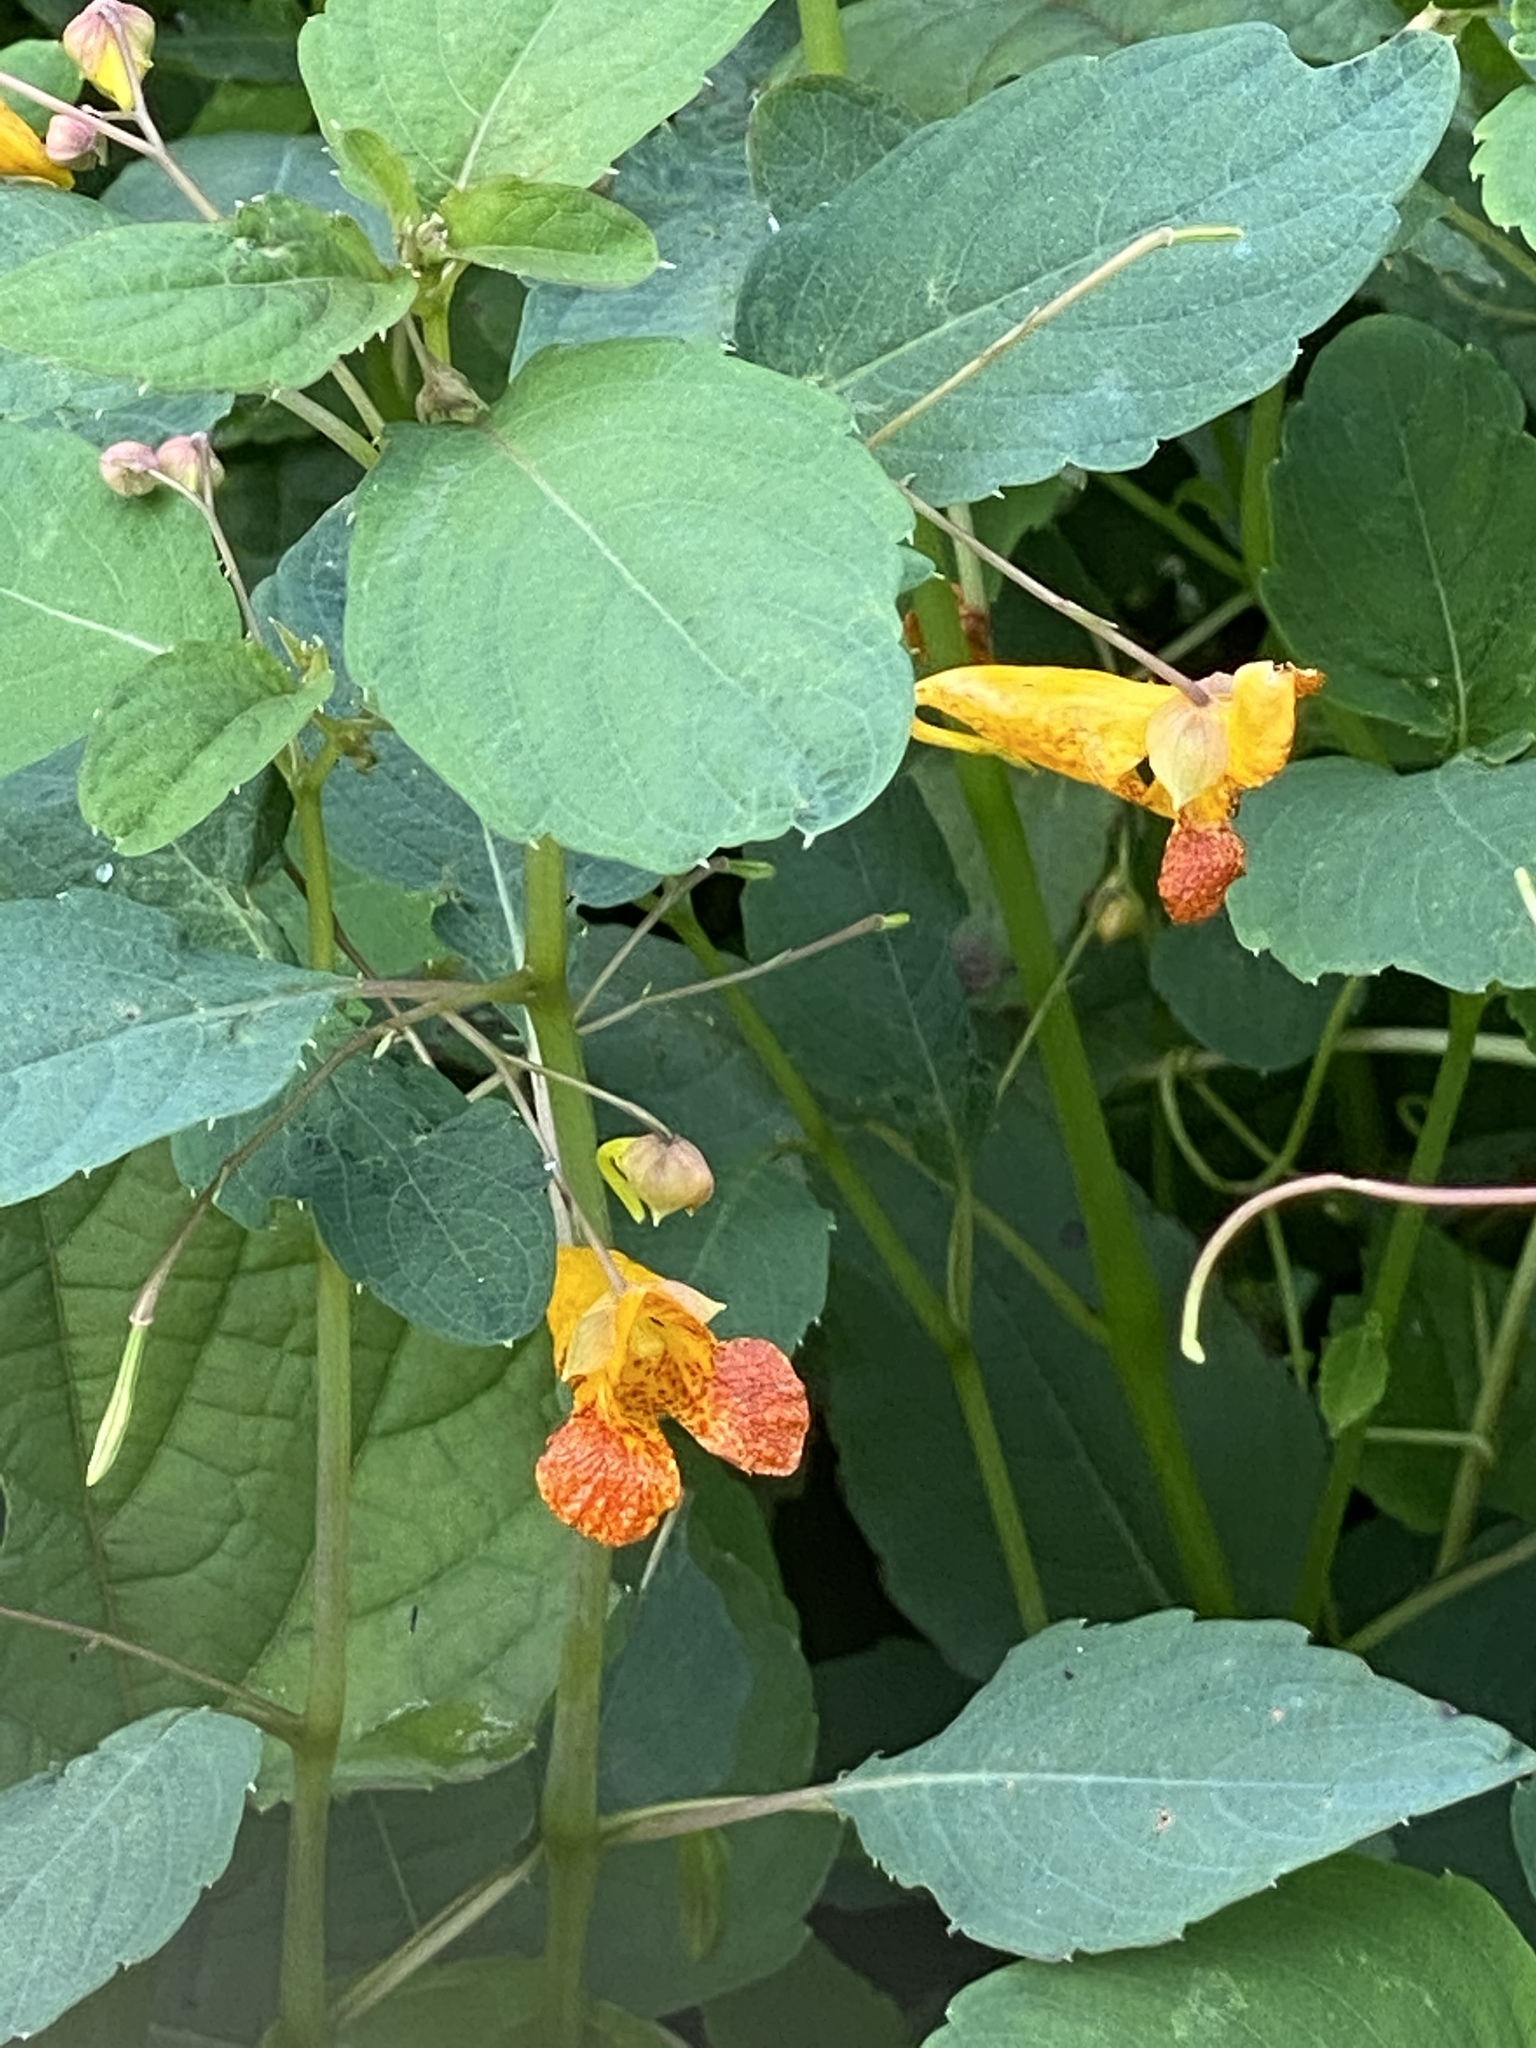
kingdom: Plantae
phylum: Tracheophyta
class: Magnoliopsida
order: Ericales
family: Balsaminaceae
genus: Impatiens
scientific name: Impatiens capensis
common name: Orange balsam
